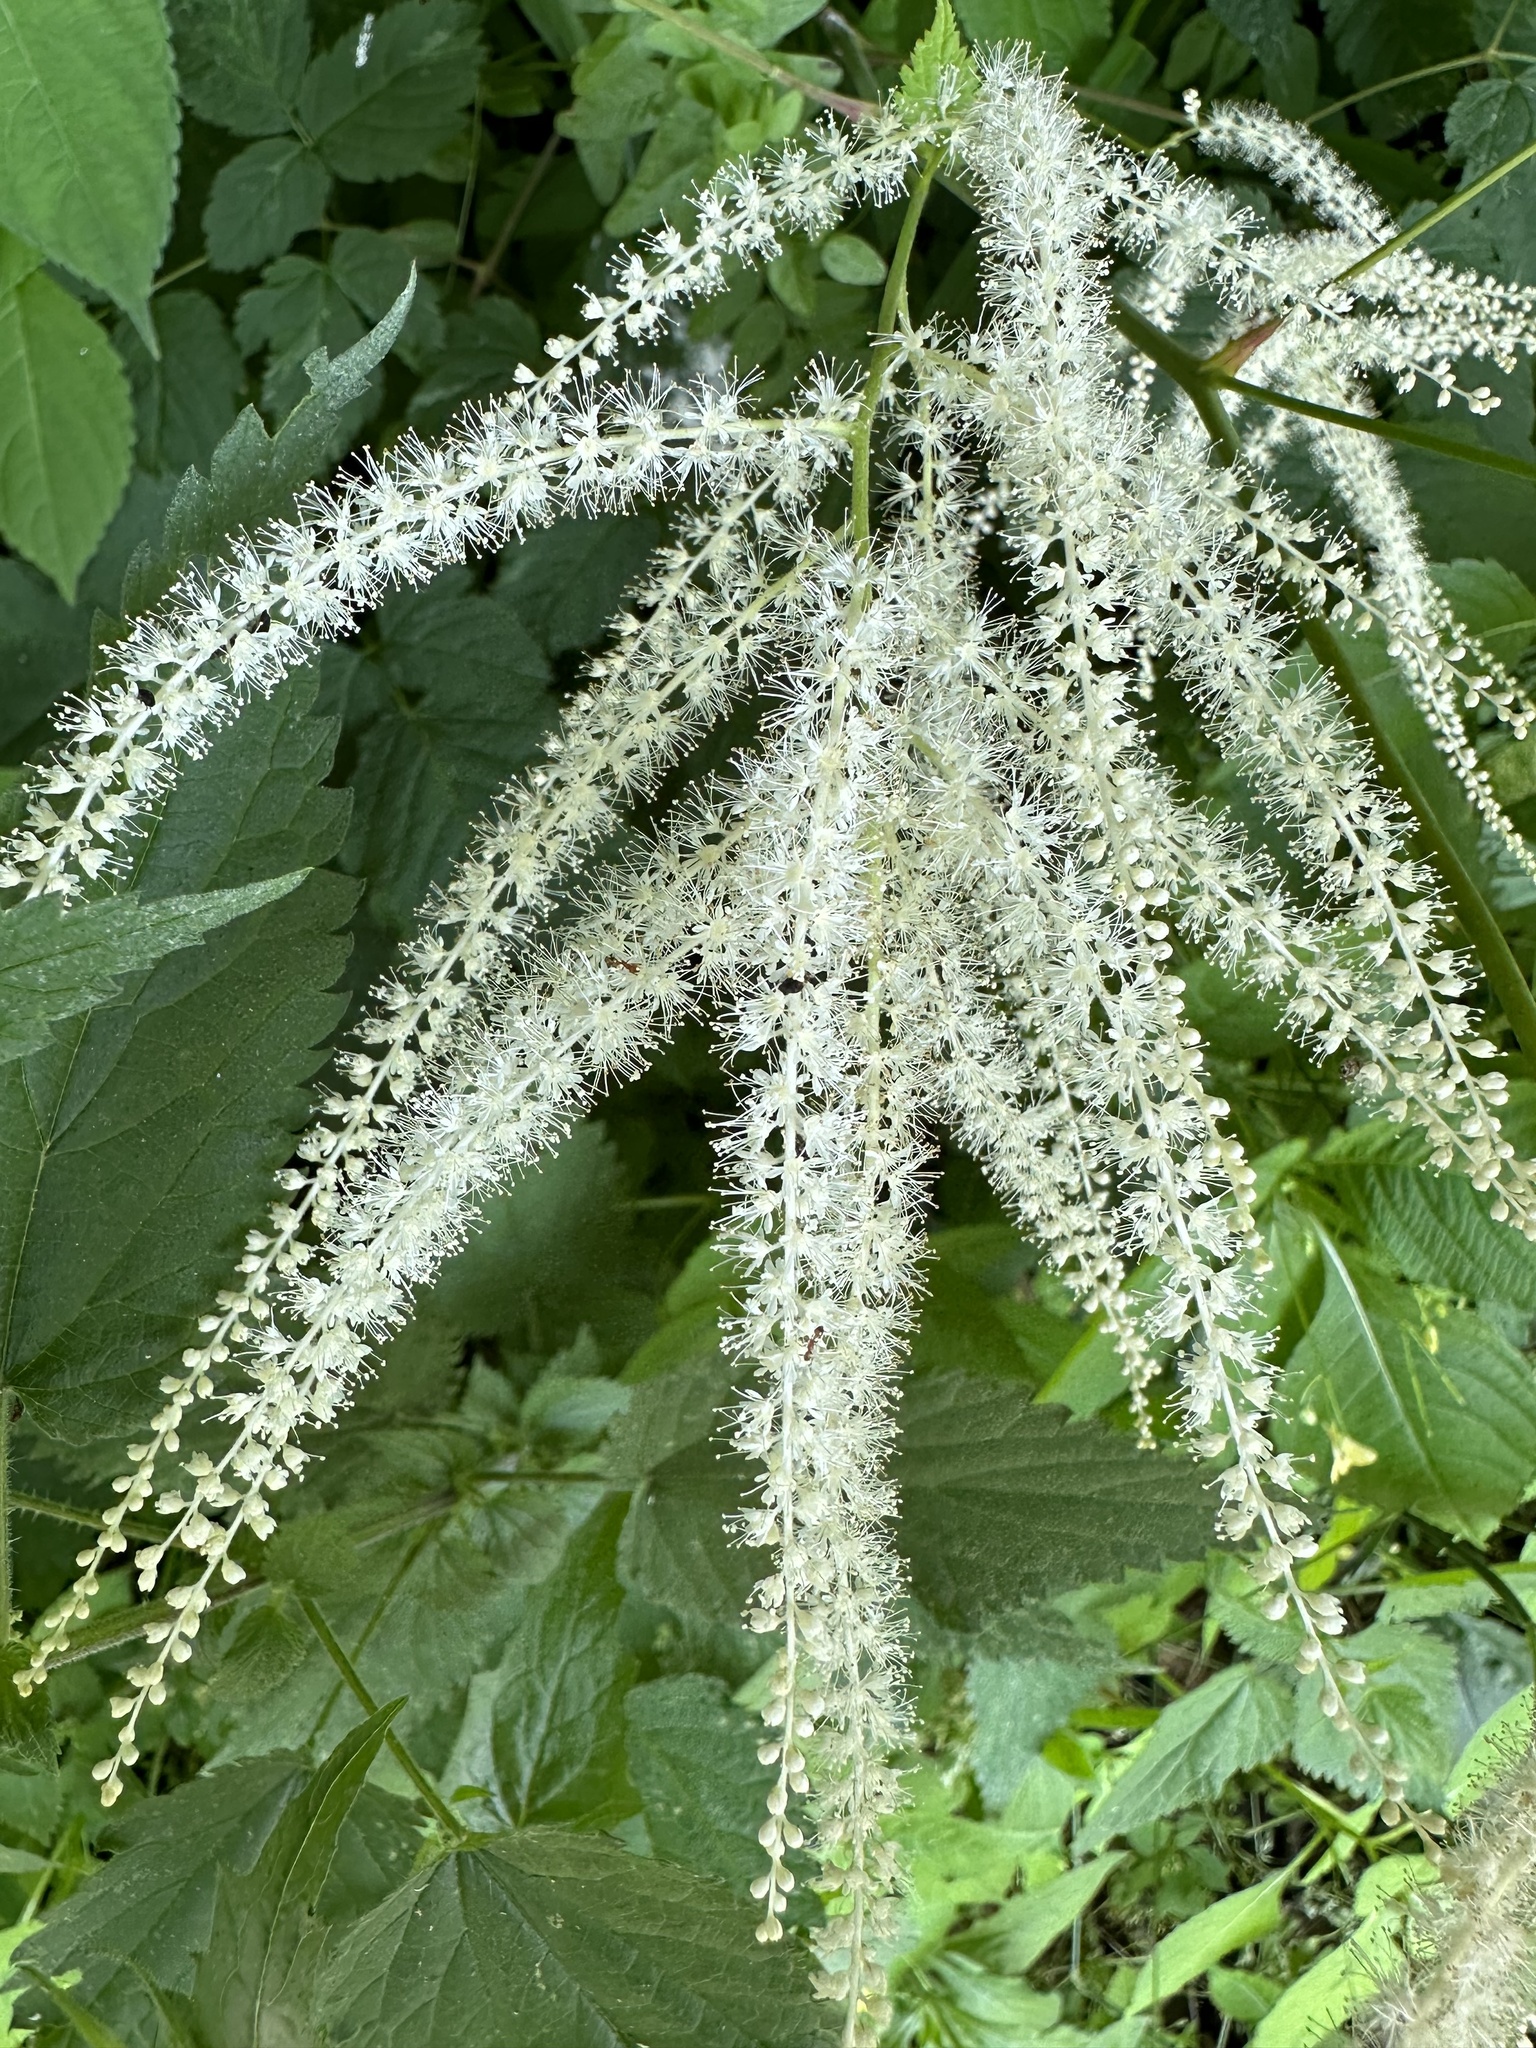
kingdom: Plantae
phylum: Tracheophyta
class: Magnoliopsida
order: Rosales
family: Rosaceae
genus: Aruncus
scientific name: Aruncus dioicus
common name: Buck's-beard
